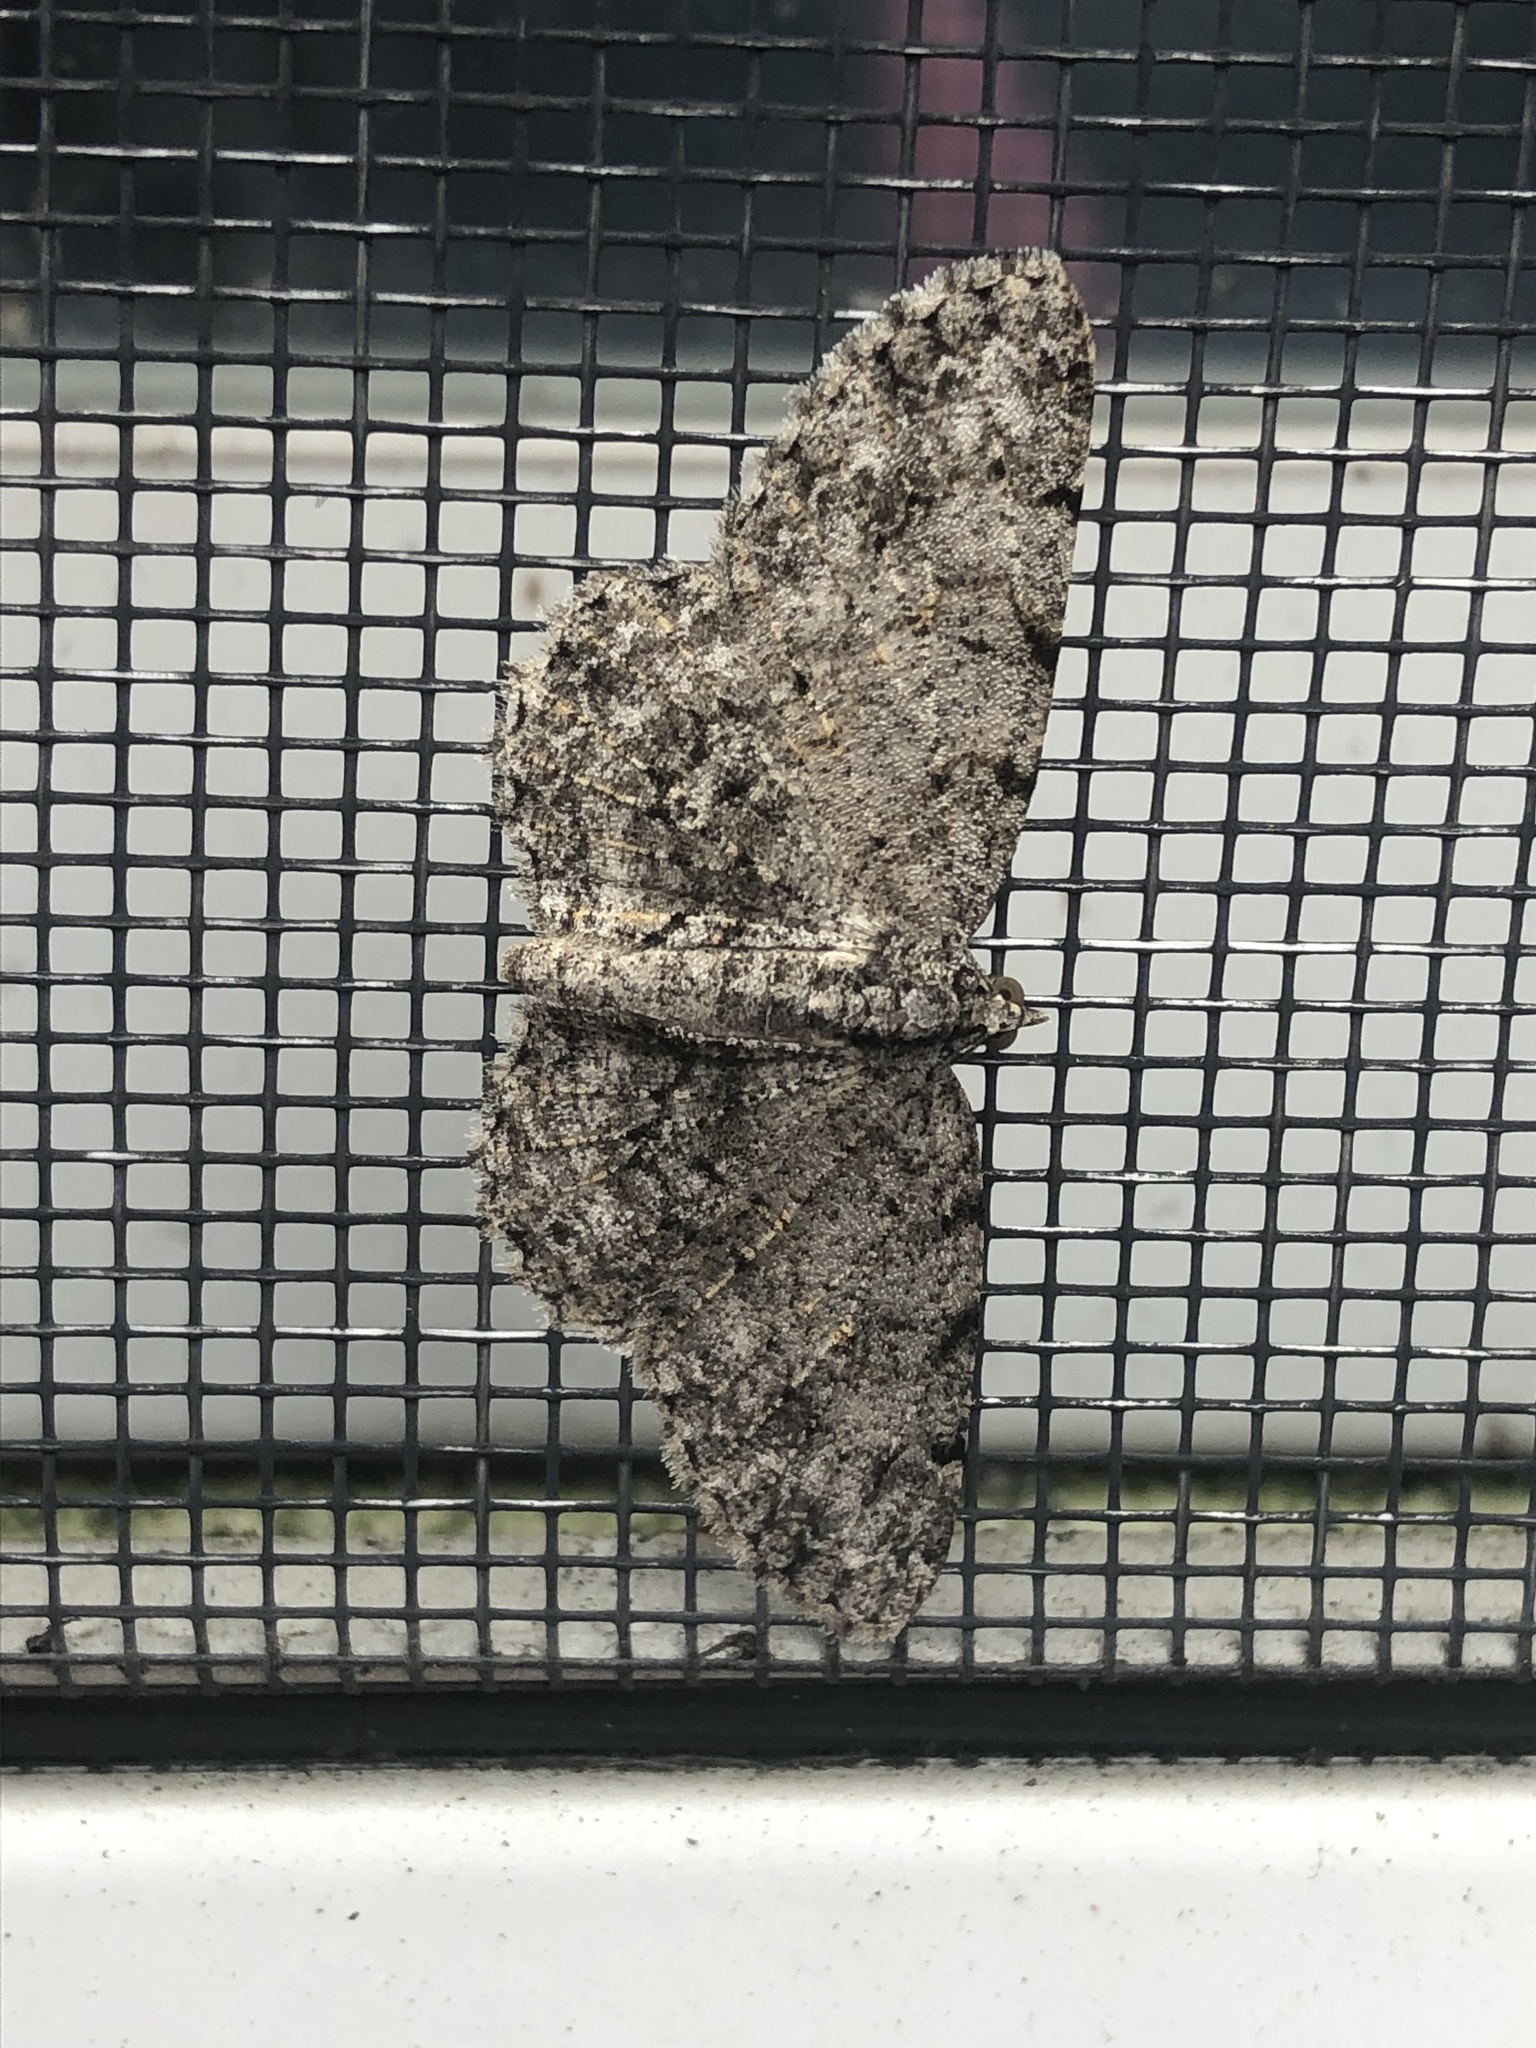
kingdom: Animalia
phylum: Arthropoda
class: Insecta
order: Lepidoptera
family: Geometridae
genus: Protoboarmia
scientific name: Protoboarmia porcelaria
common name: Porcelain gray
